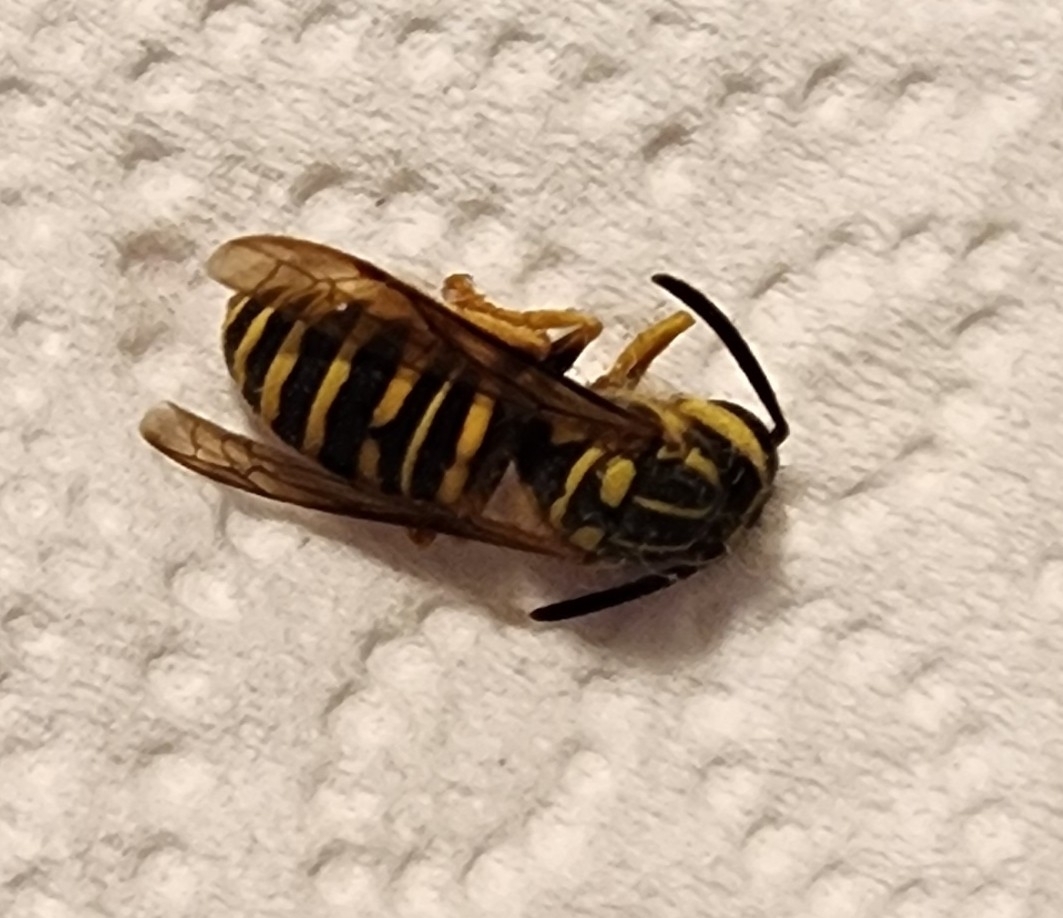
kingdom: Animalia
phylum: Arthropoda
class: Insecta
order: Hymenoptera
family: Vespidae
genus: Vespula
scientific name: Vespula squamosa
